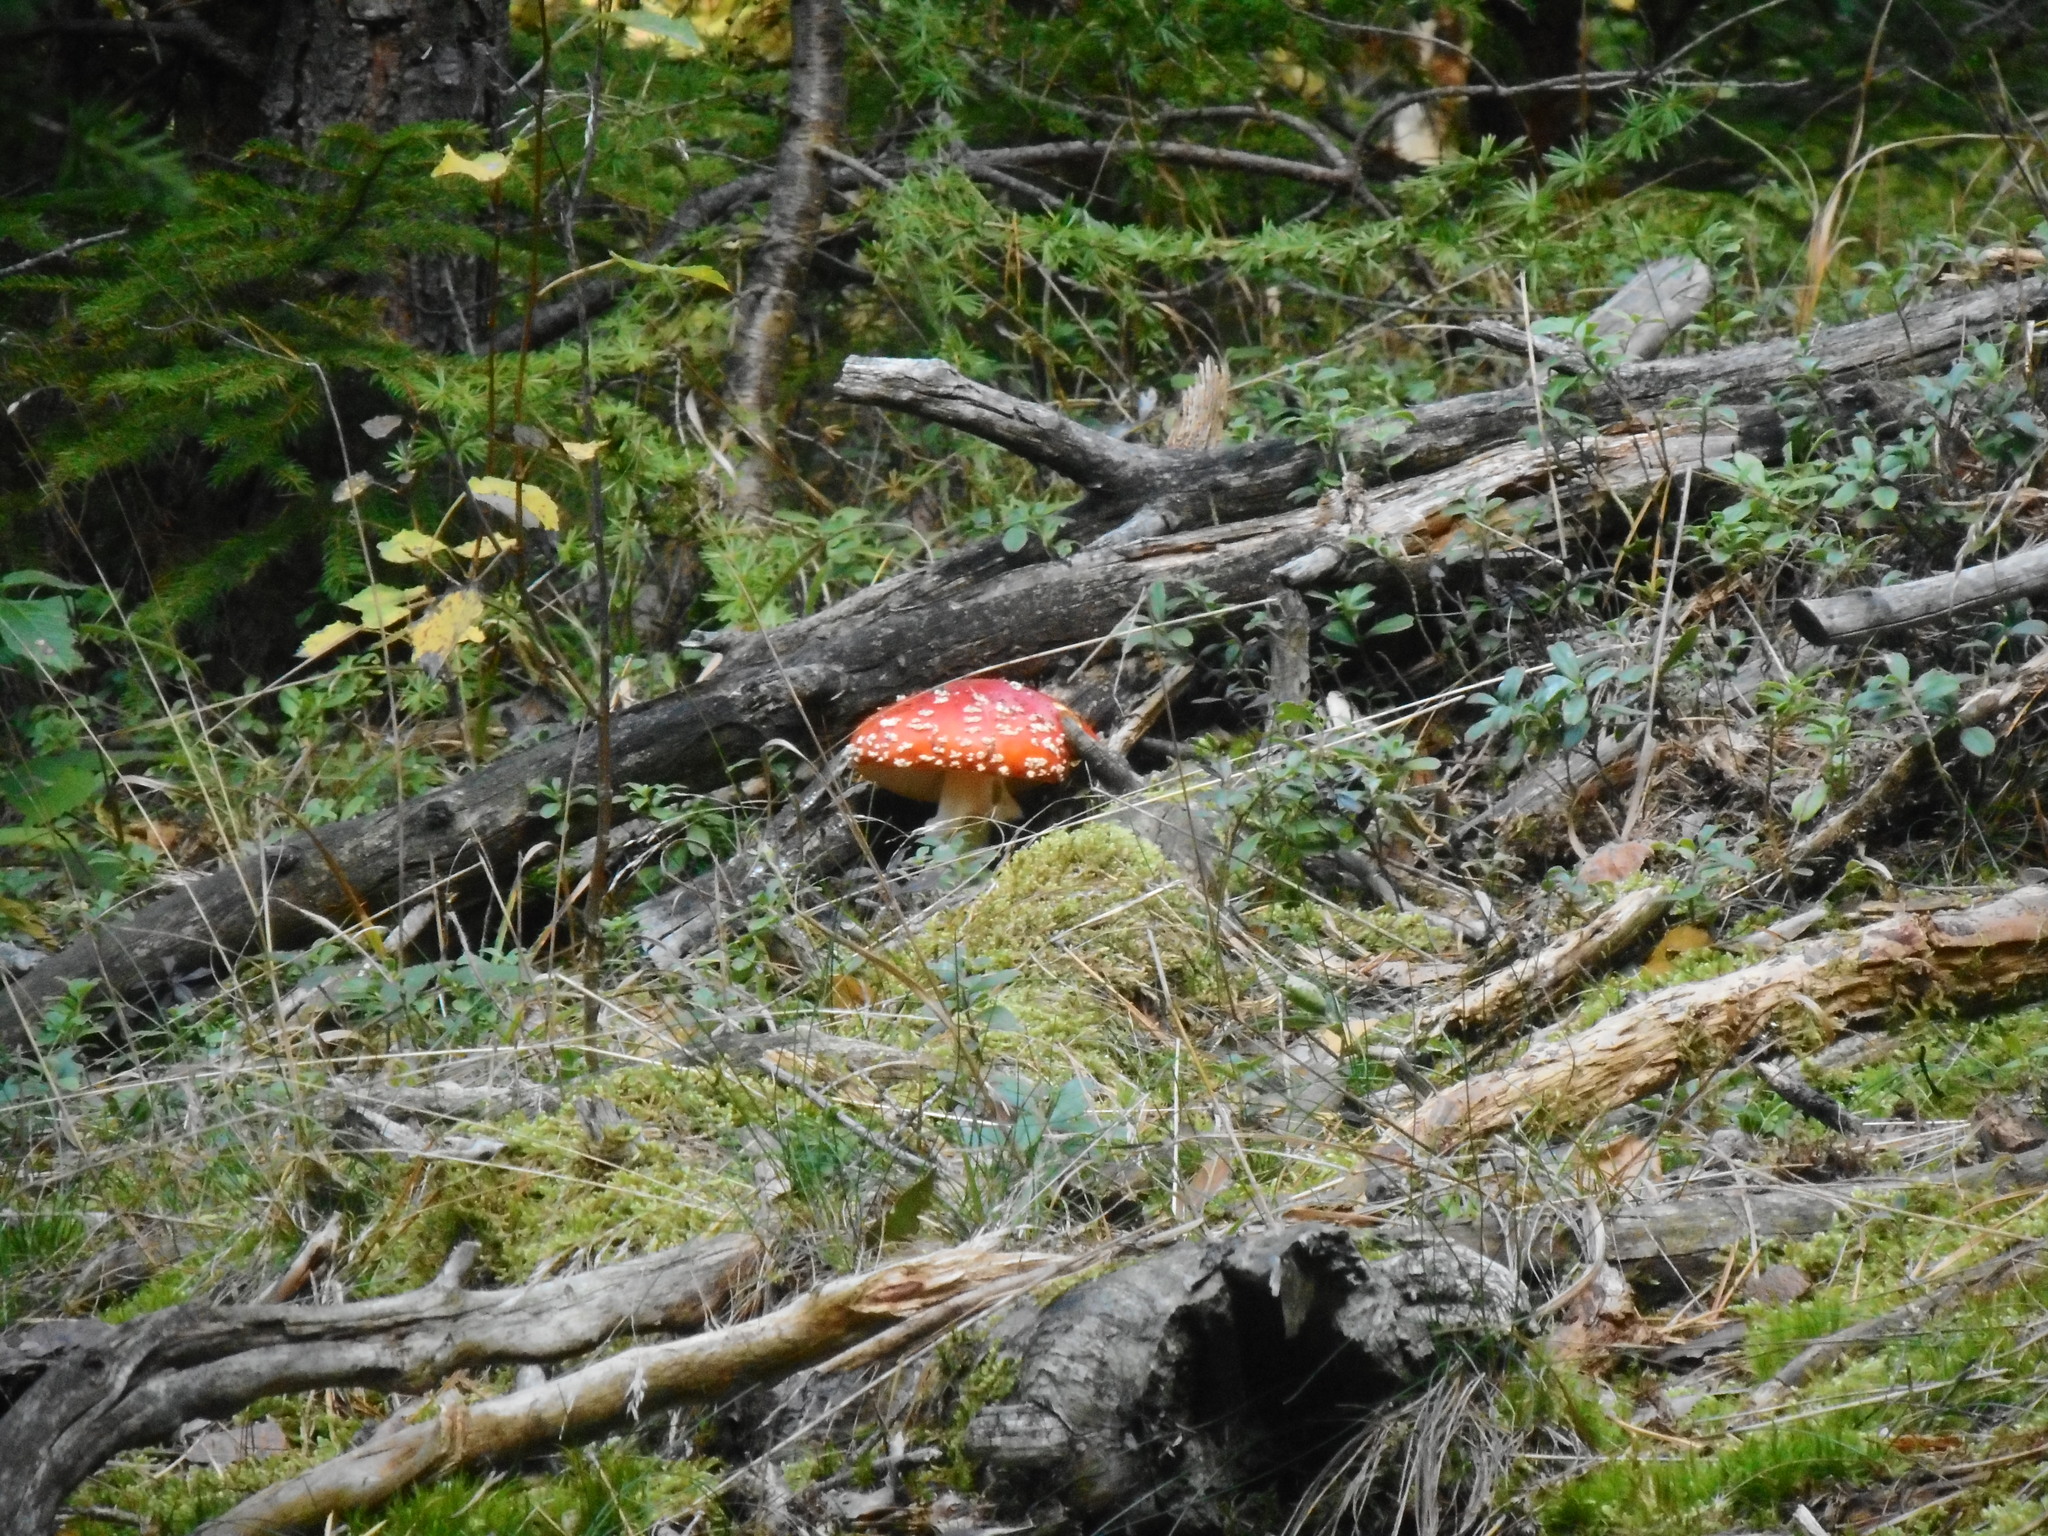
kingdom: Fungi
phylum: Basidiomycota
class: Agaricomycetes
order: Agaricales
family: Amanitaceae
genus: Amanita
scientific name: Amanita muscaria
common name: Fly agaric
